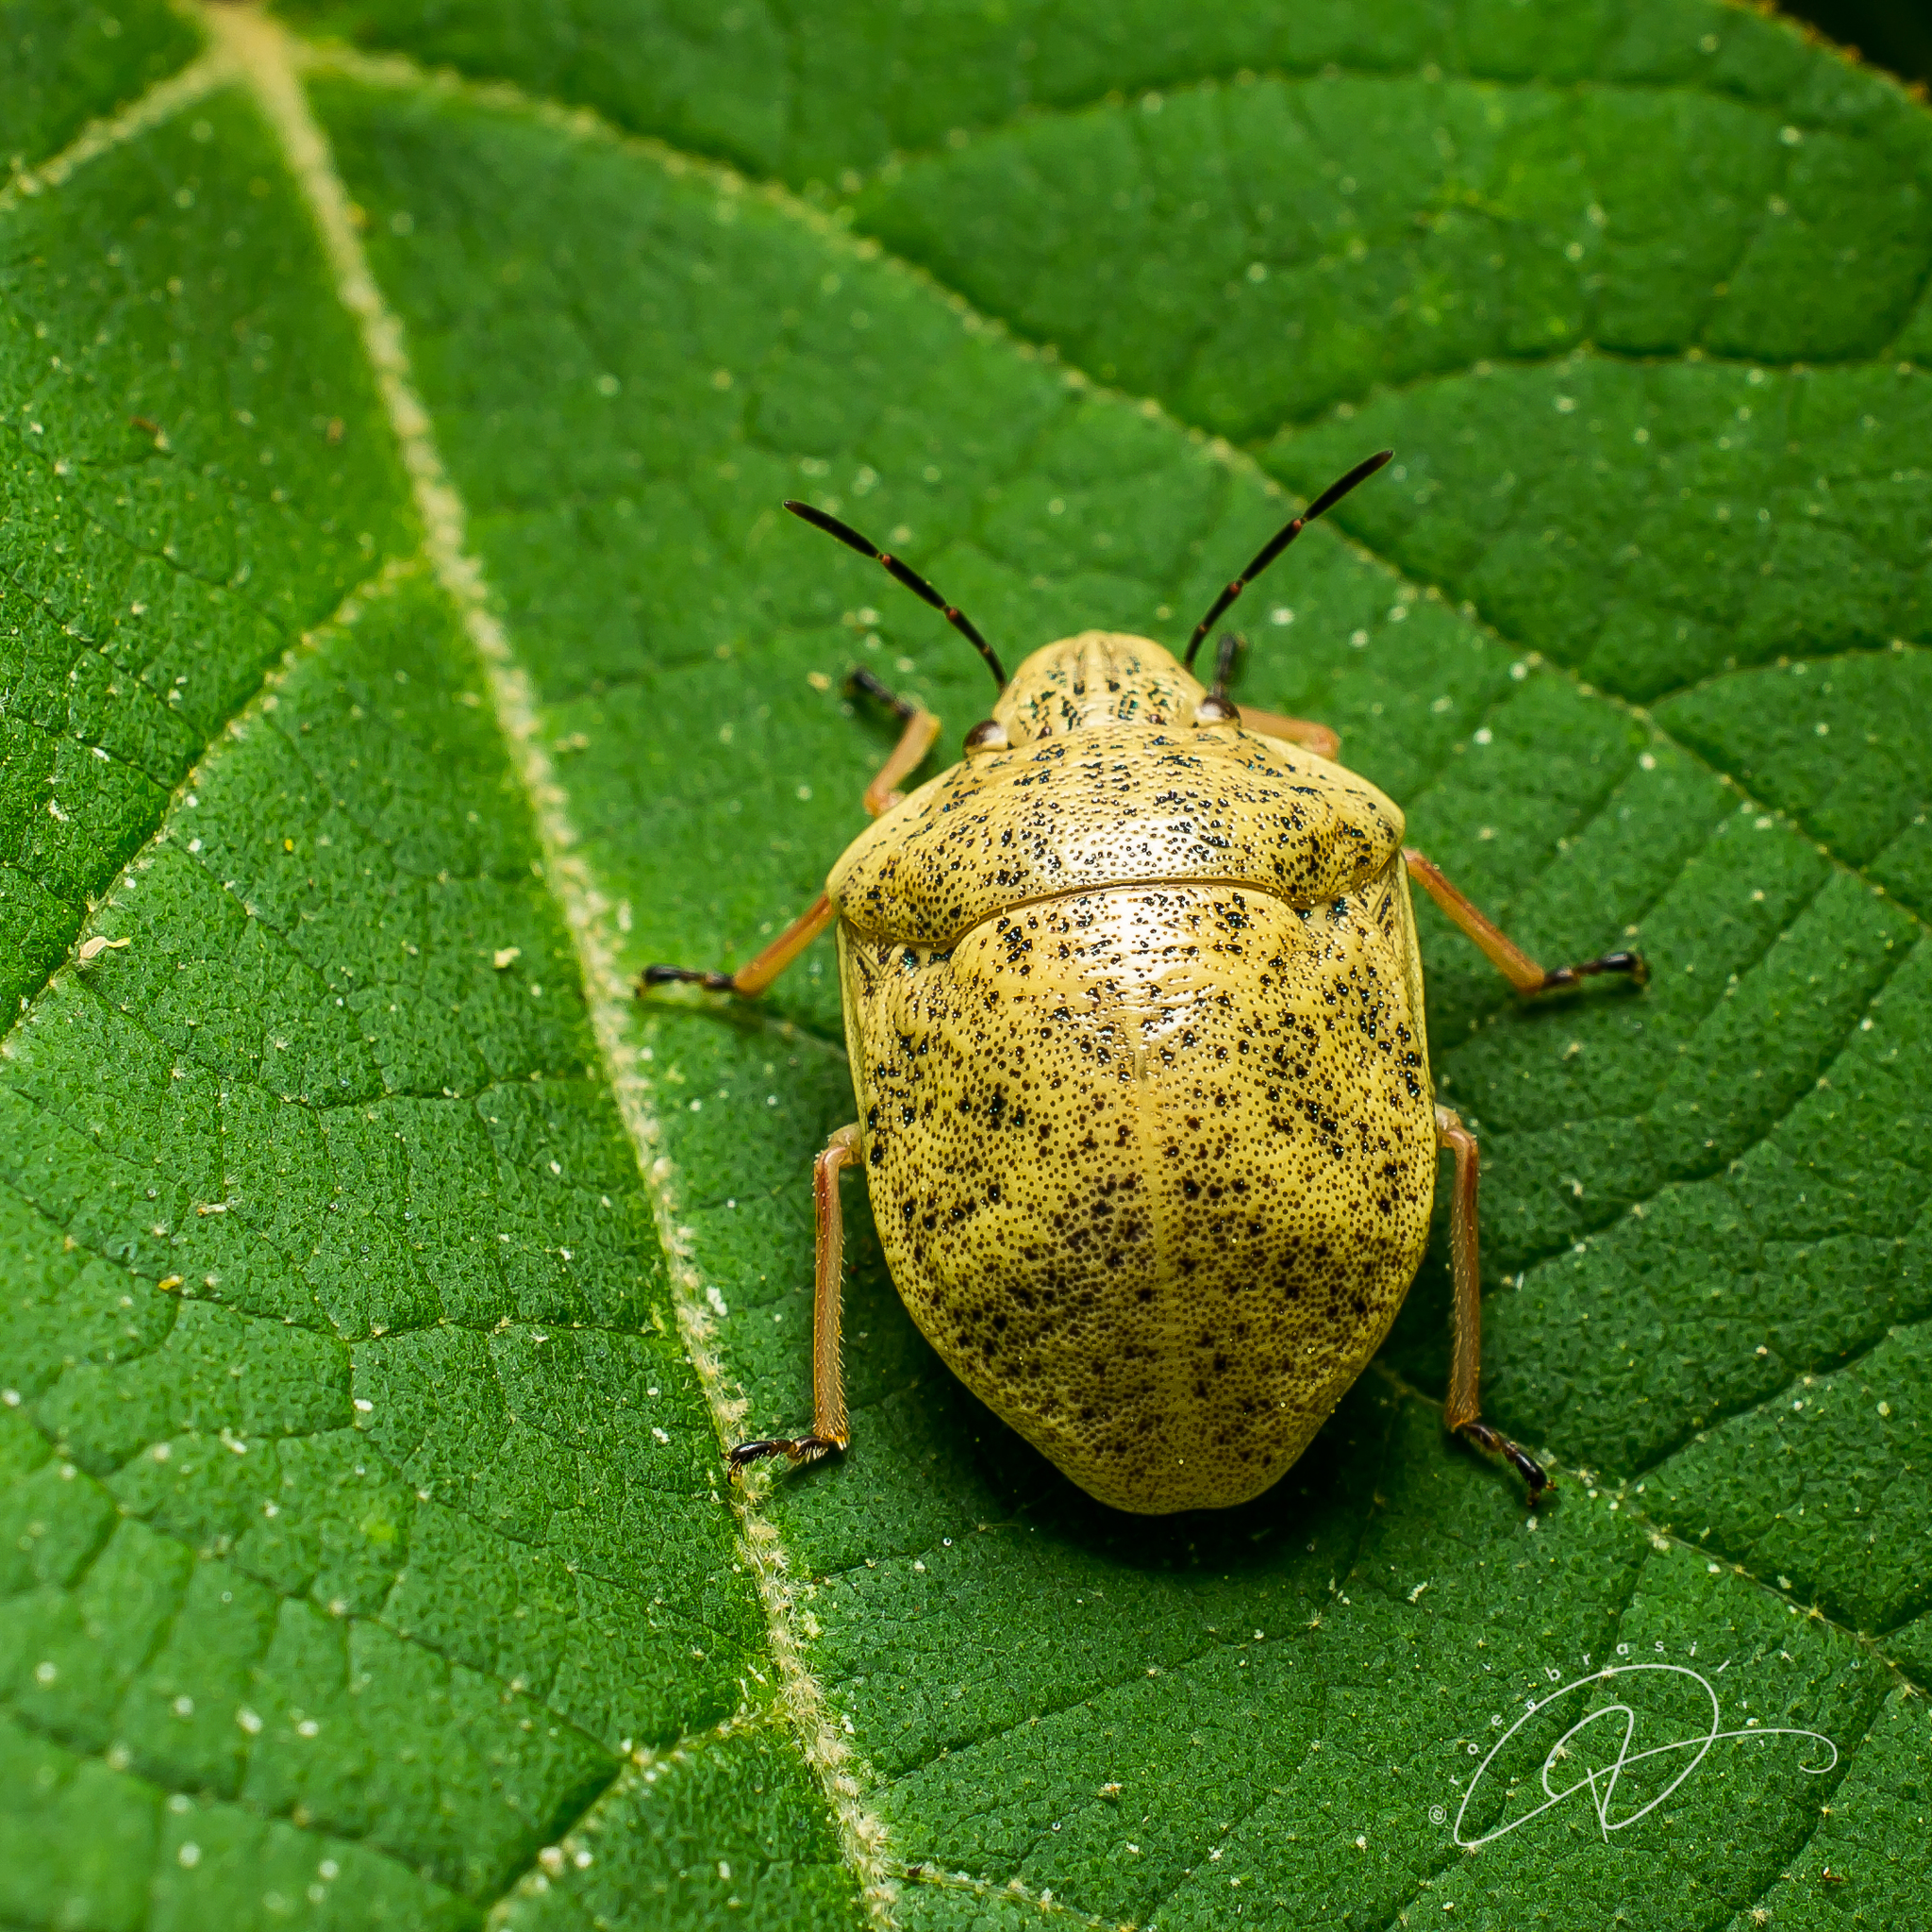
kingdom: Animalia
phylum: Arthropoda
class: Insecta
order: Hemiptera
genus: Ascanius
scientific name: Ascanius
